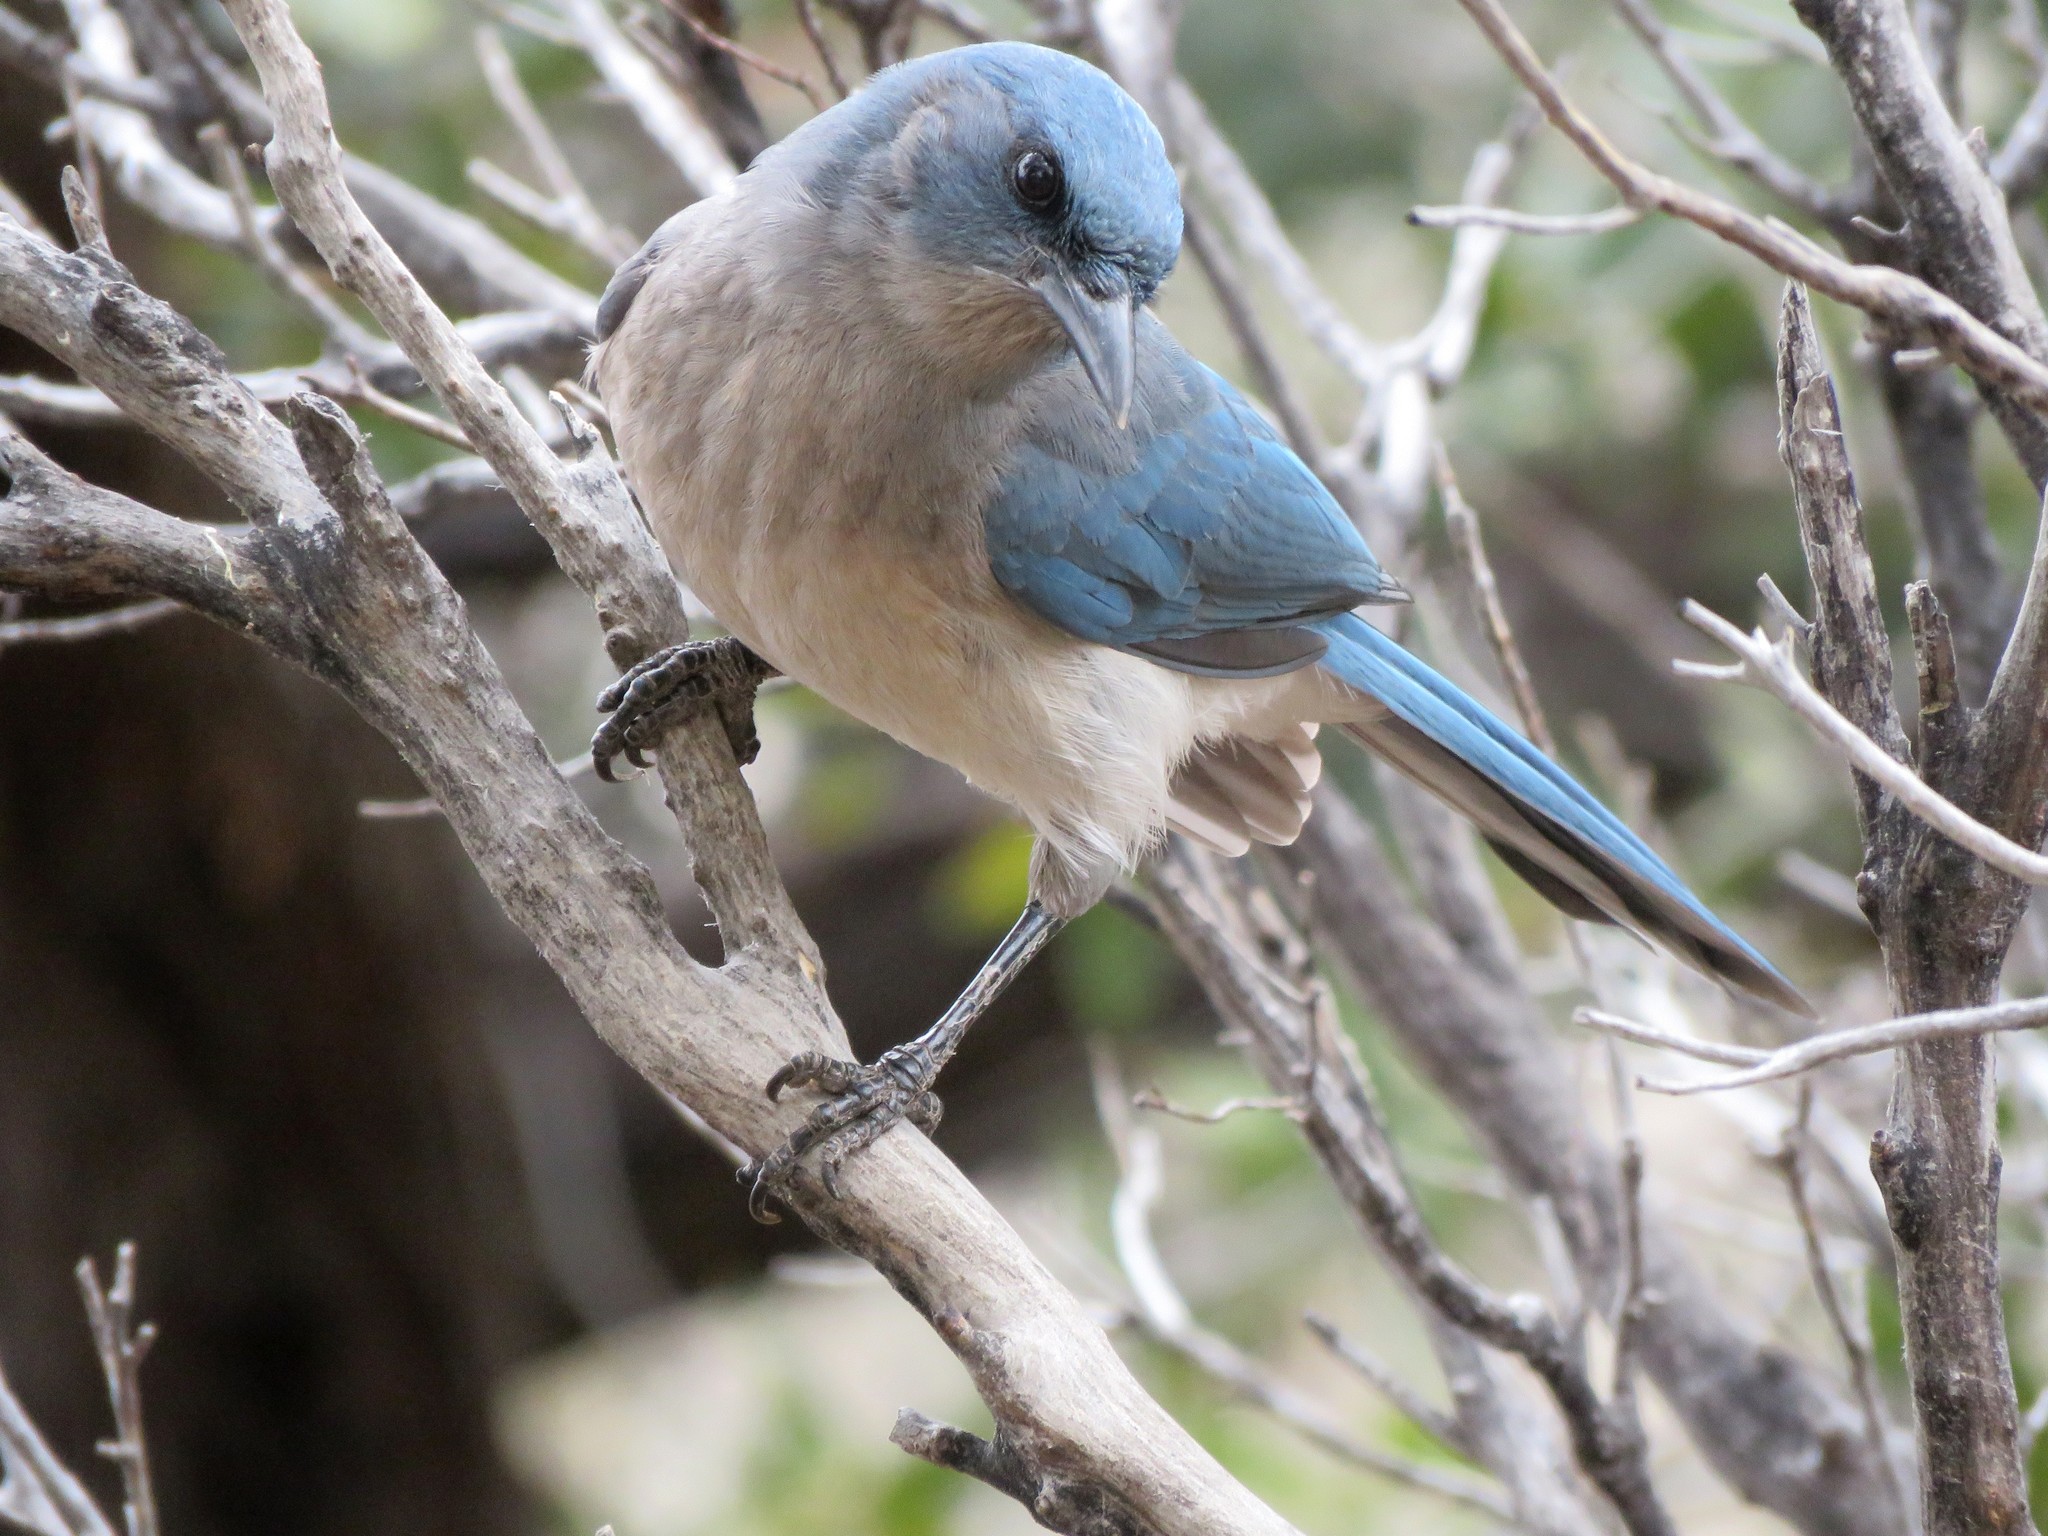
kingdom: Animalia
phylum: Chordata
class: Aves
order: Passeriformes
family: Corvidae
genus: Aphelocoma
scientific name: Aphelocoma wollweberi
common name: Mexican jay
